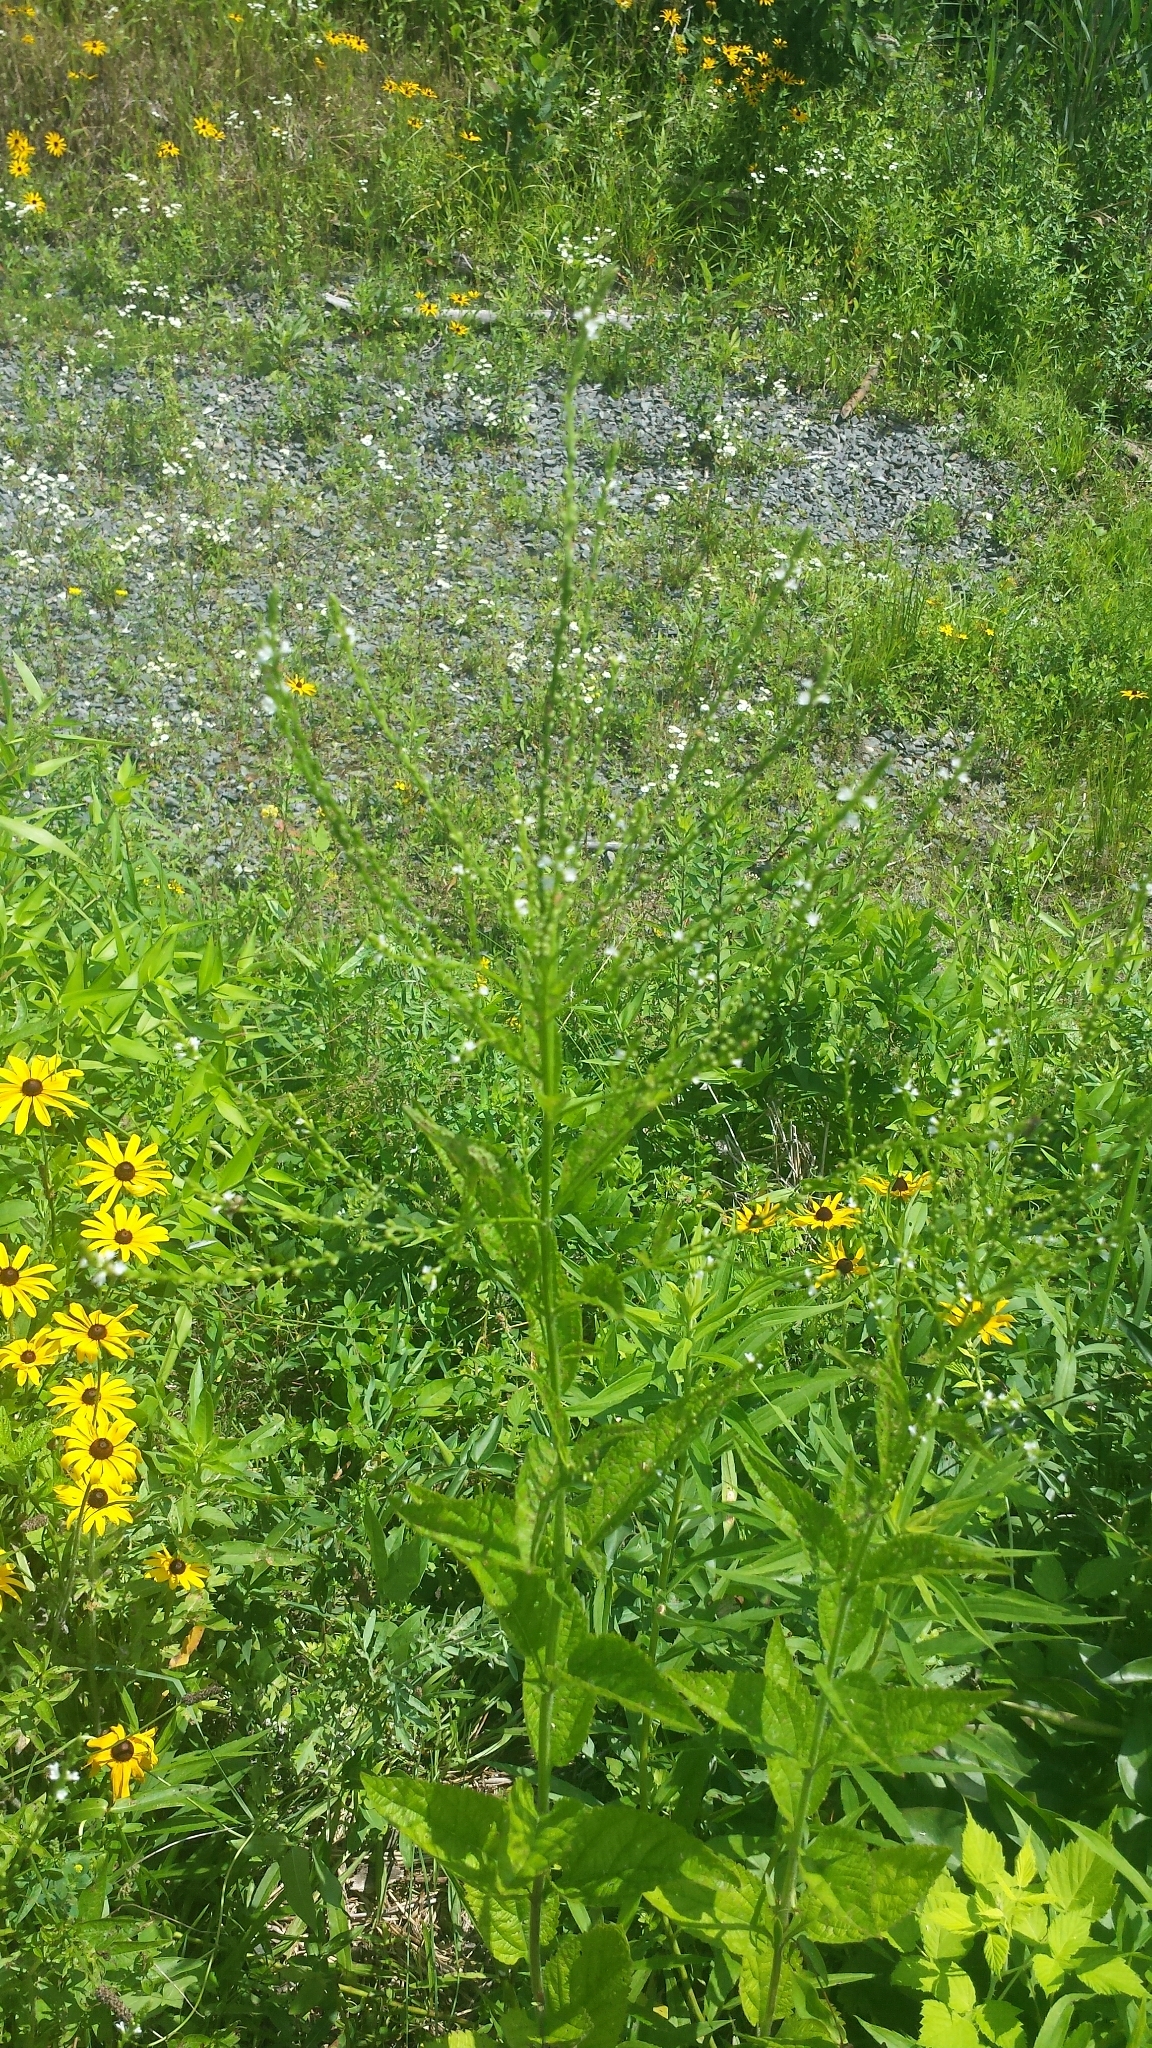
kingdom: Plantae
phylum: Tracheophyta
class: Magnoliopsida
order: Lamiales
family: Verbenaceae
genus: Verbena
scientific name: Verbena urticifolia
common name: Nettle-leaved vervain
